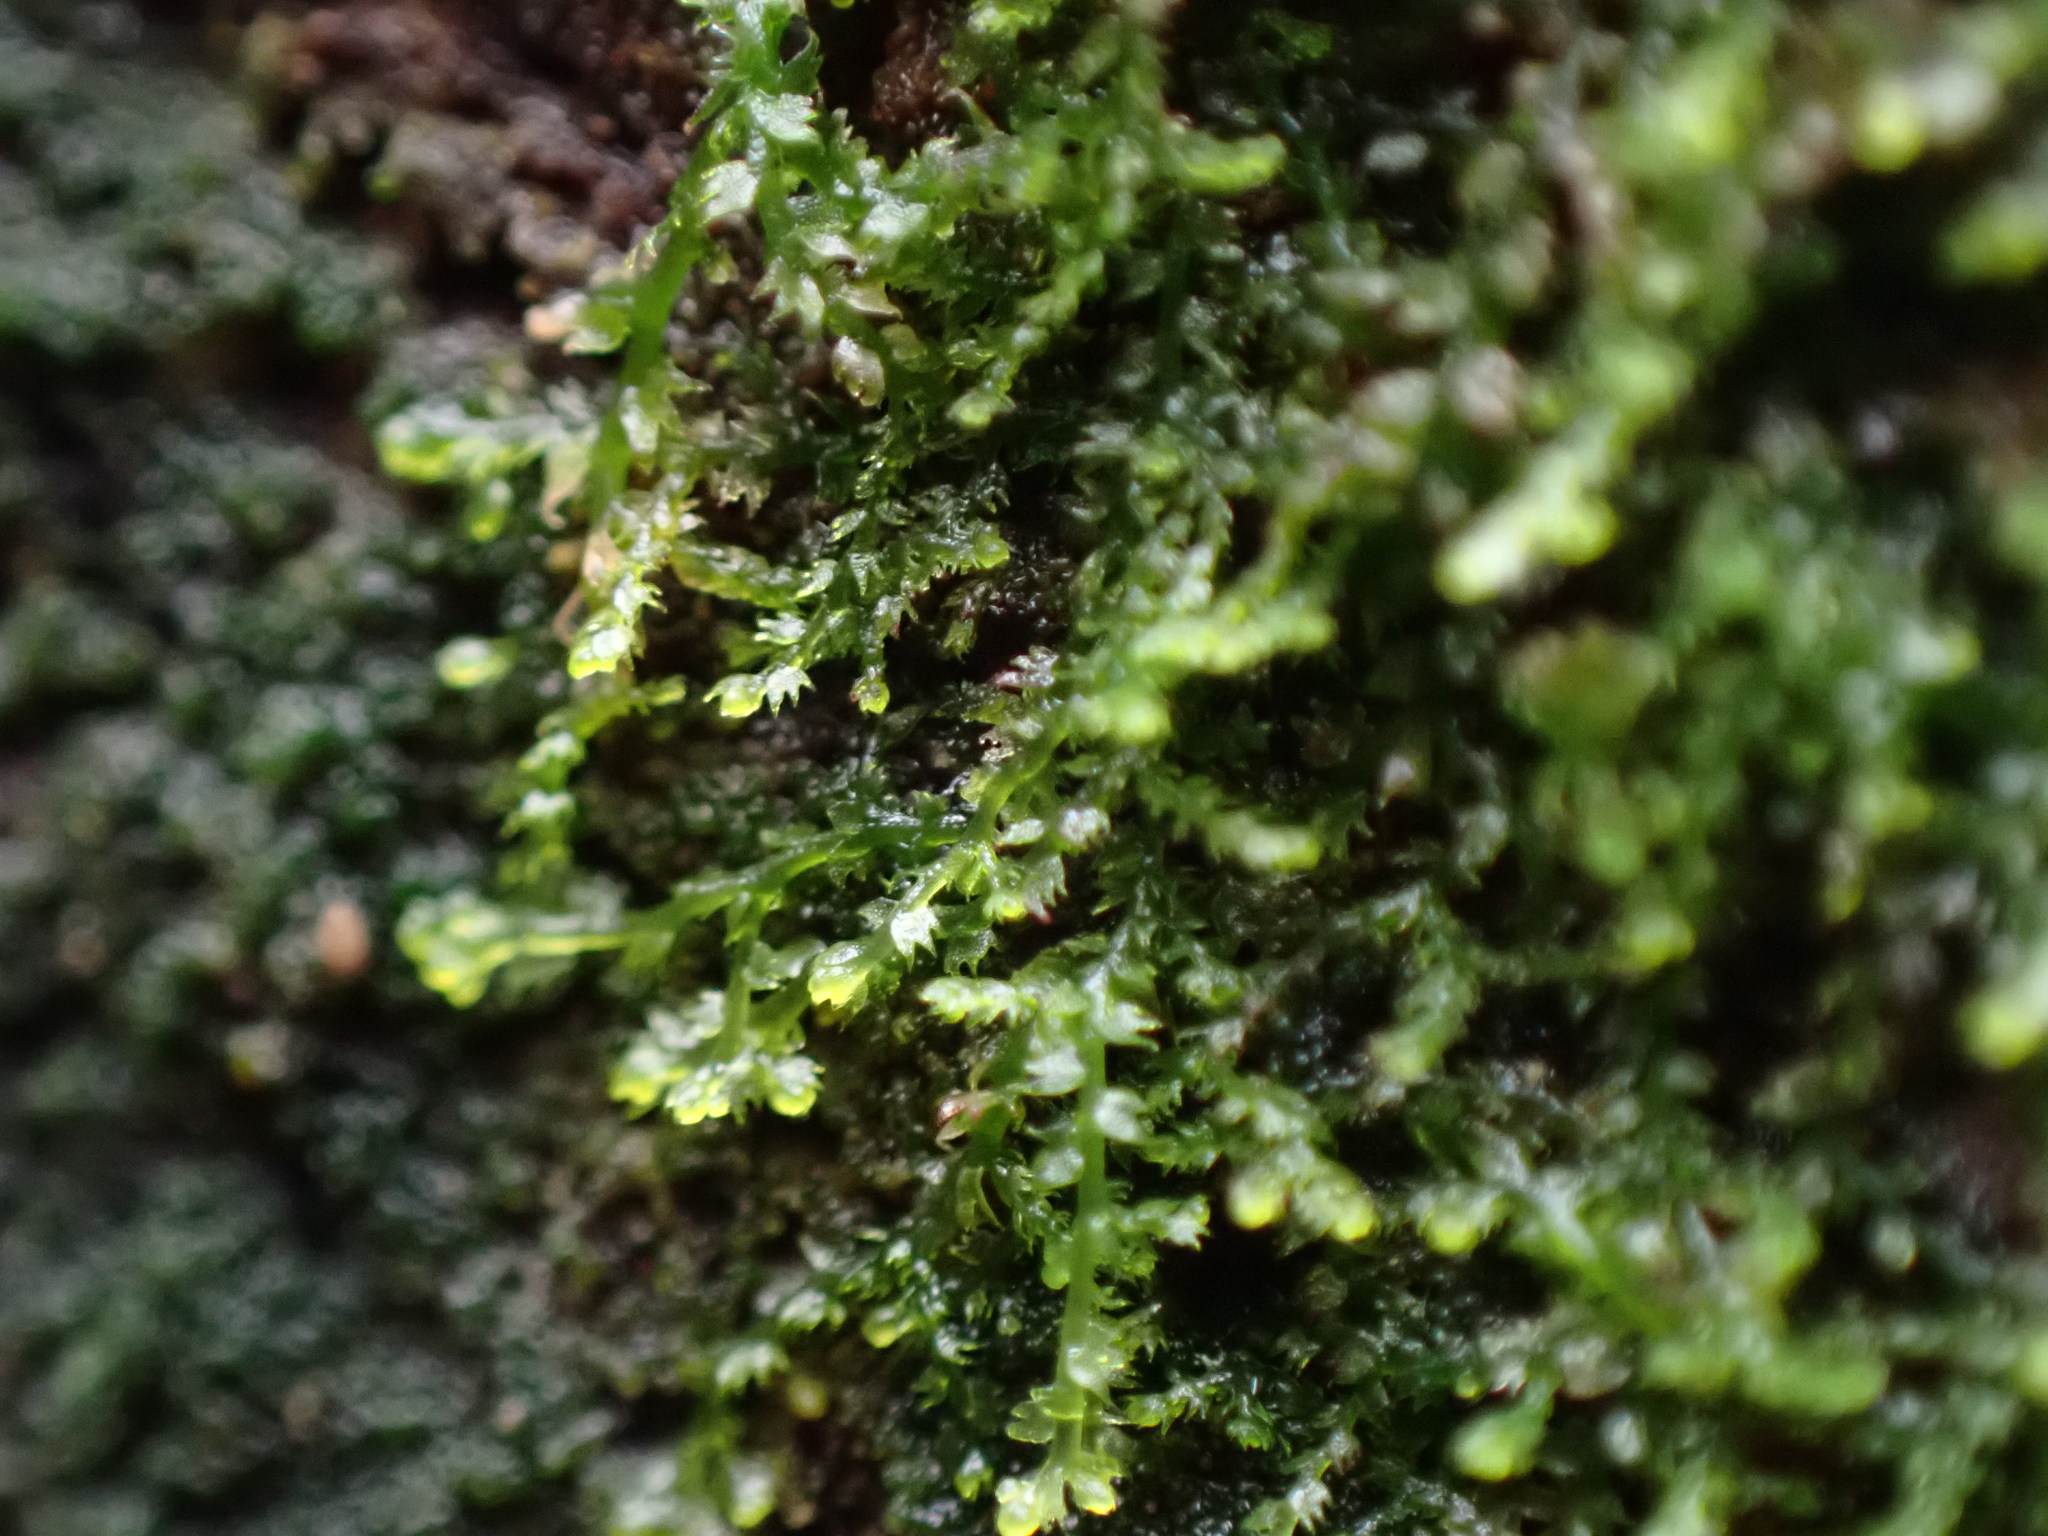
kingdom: Plantae
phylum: Marchantiophyta
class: Jungermanniopsida
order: Jungermanniales
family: Lepidoziaceae
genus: Lepidozia
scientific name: Lepidozia reptans
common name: Creeping fingerwort
